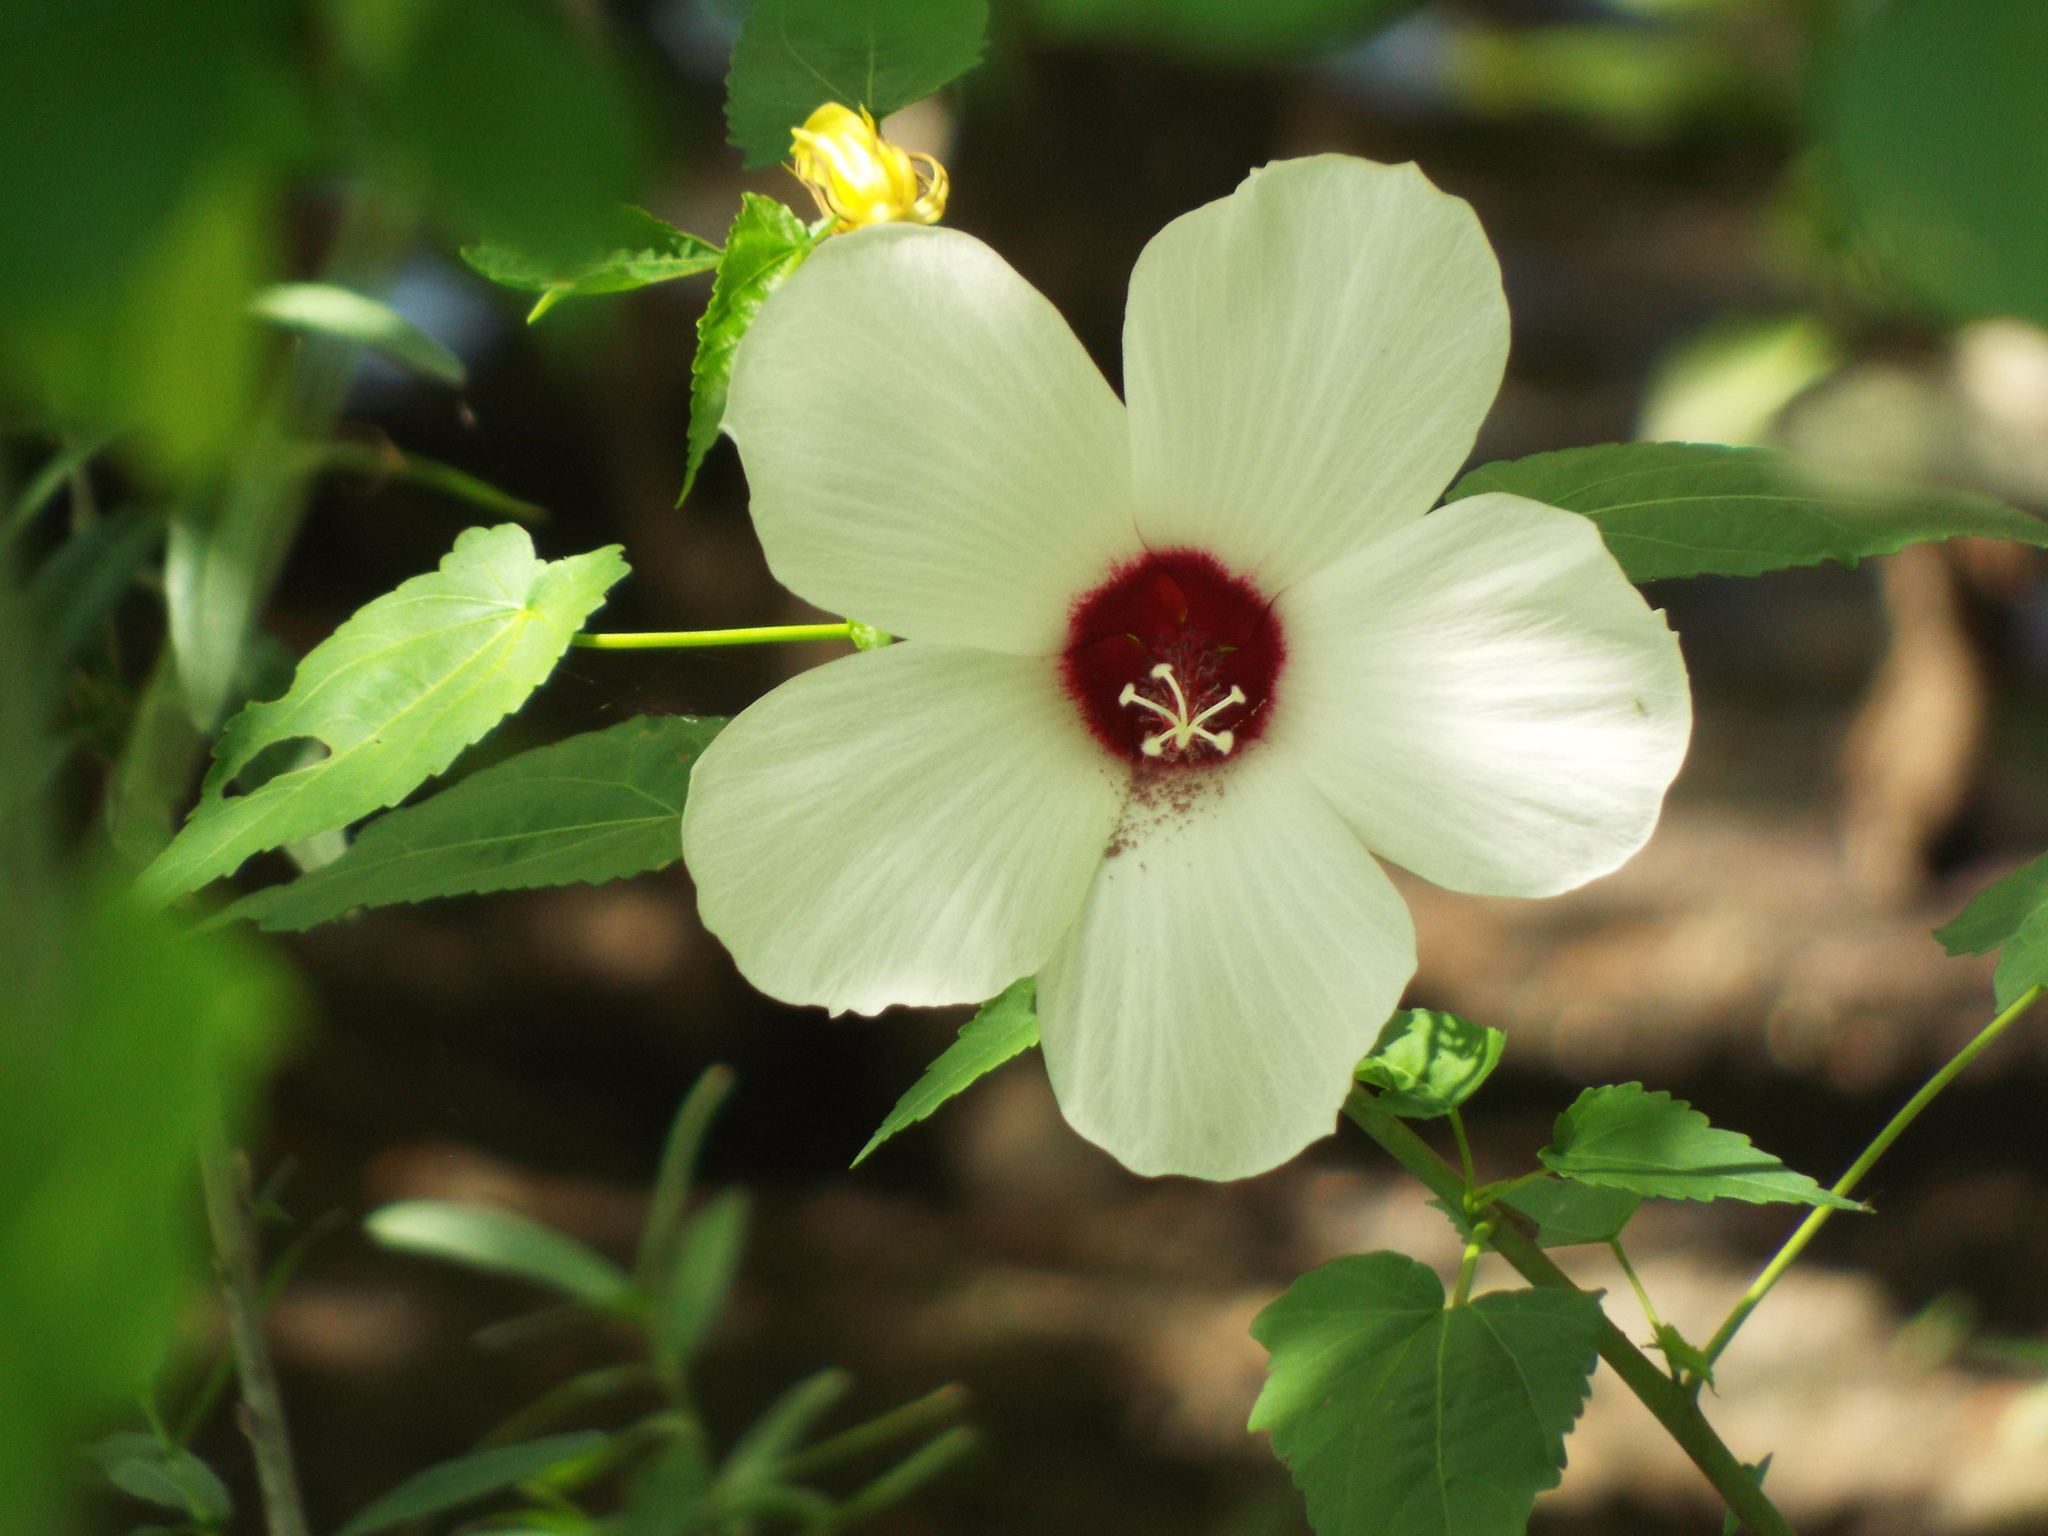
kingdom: Plantae
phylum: Tracheophyta
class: Magnoliopsida
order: Malvales
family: Malvaceae
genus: Hibiscus
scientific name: Hibiscus laevis
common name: Scarlet rose-mallow
